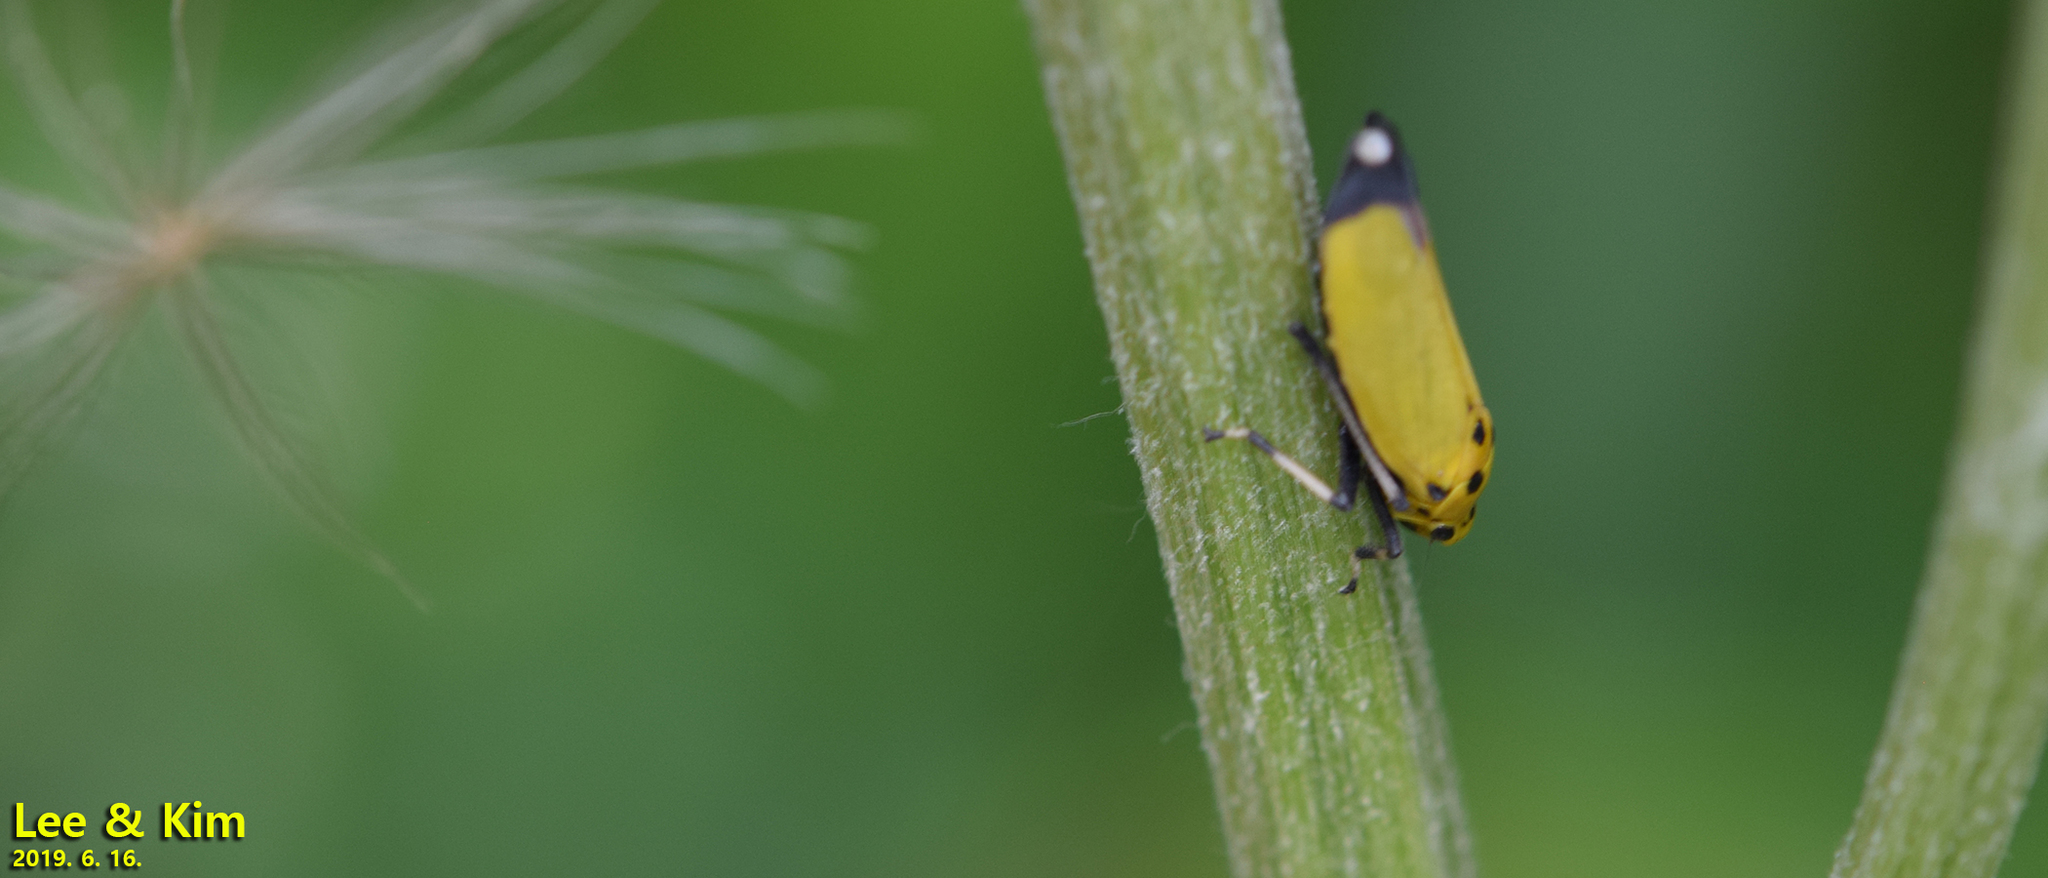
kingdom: Animalia
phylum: Arthropoda
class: Insecta
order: Hemiptera
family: Cicadellidae
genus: Bothrogonia
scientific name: Bothrogonia ferruginea
